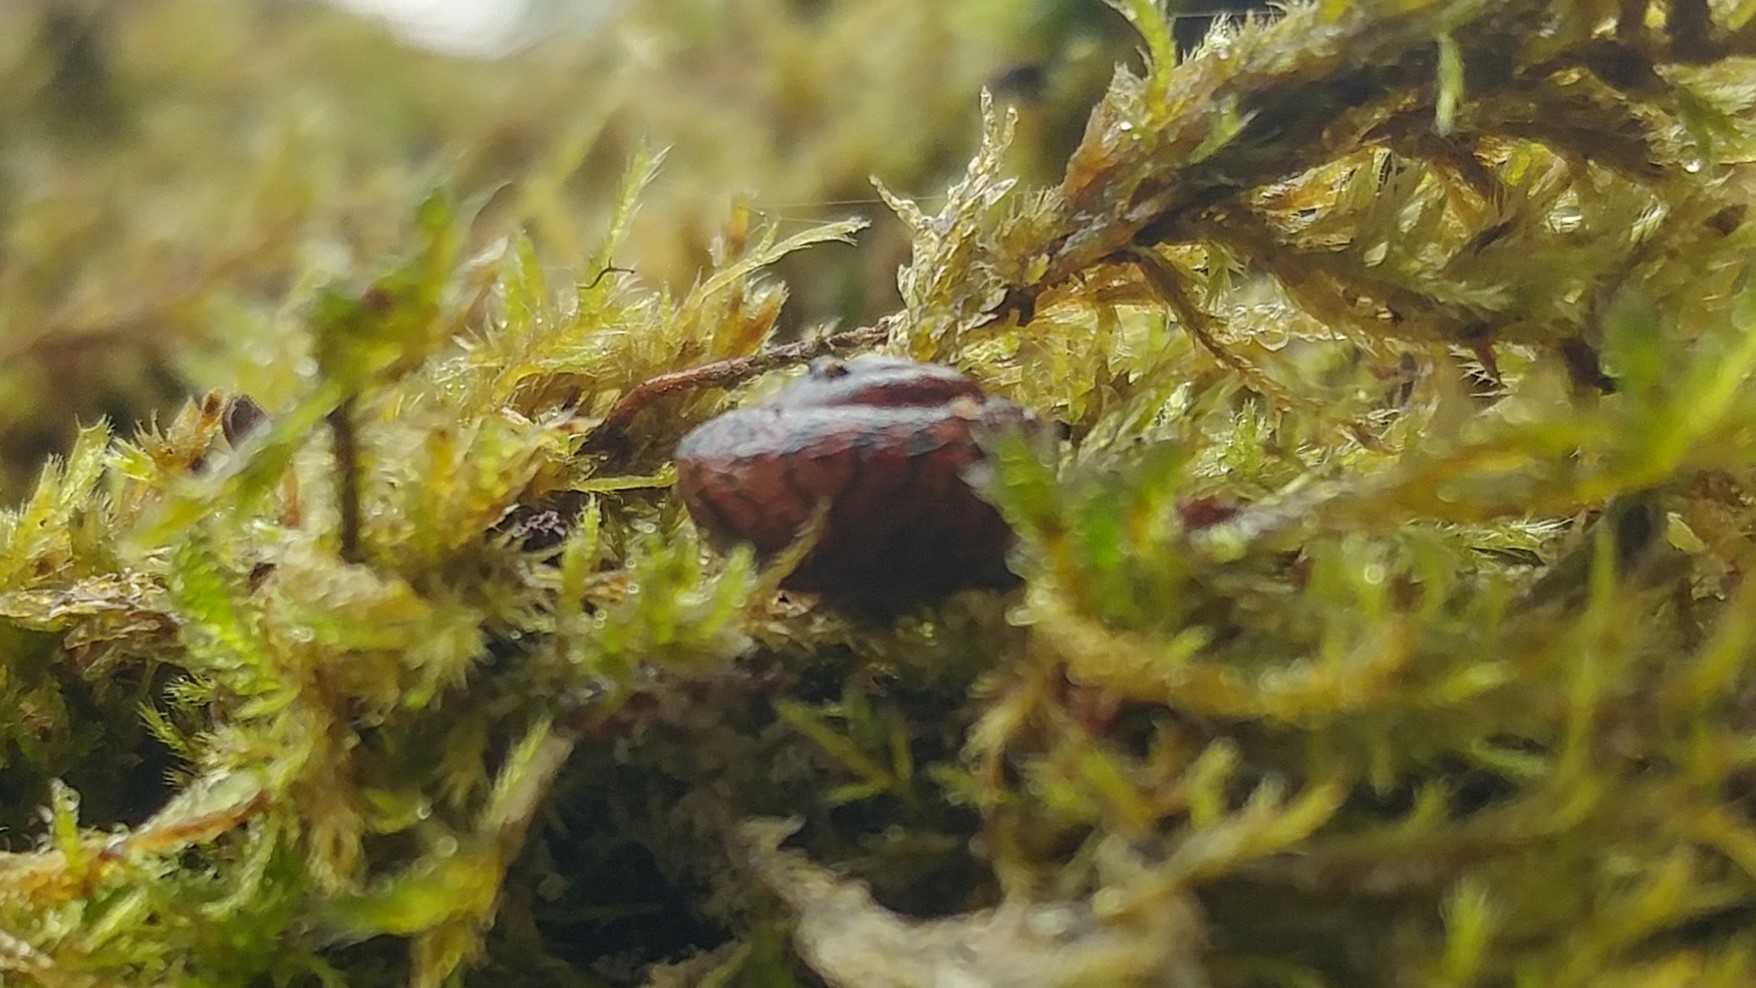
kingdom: Animalia
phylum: Mollusca
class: Gastropoda
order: Stylommatophora
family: Xanthonychidae
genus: Monadenia
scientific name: Monadenia fidelis
